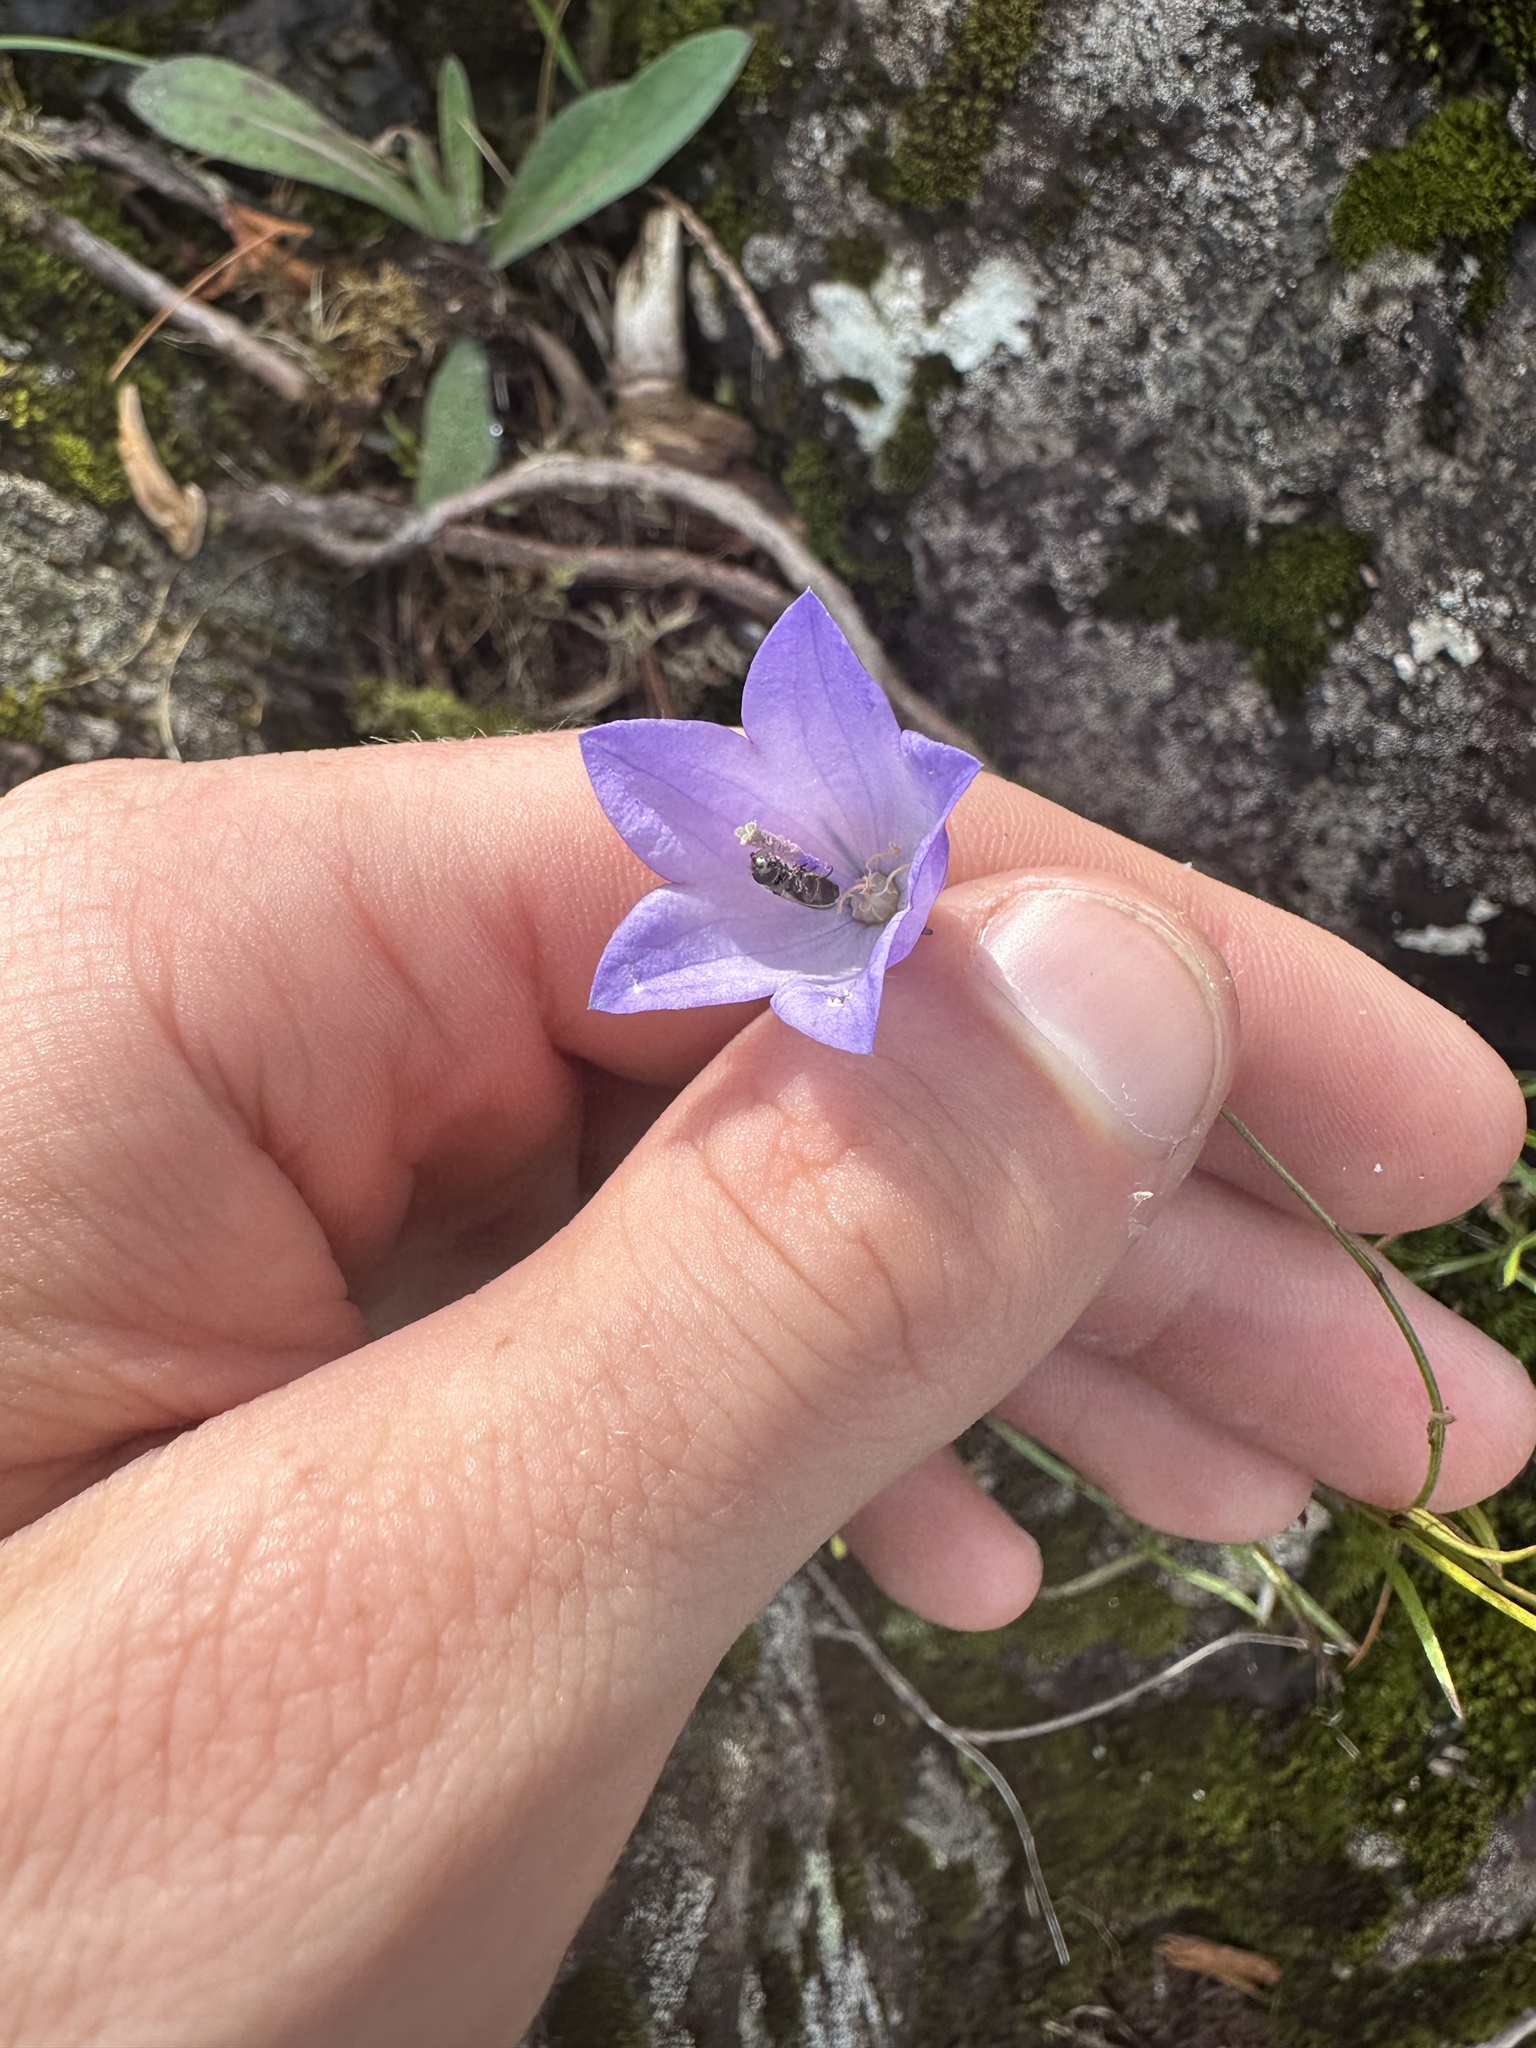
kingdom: Plantae
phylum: Tracheophyta
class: Magnoliopsida
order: Asterales
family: Campanulaceae
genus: Campanula
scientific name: Campanula intercedens
